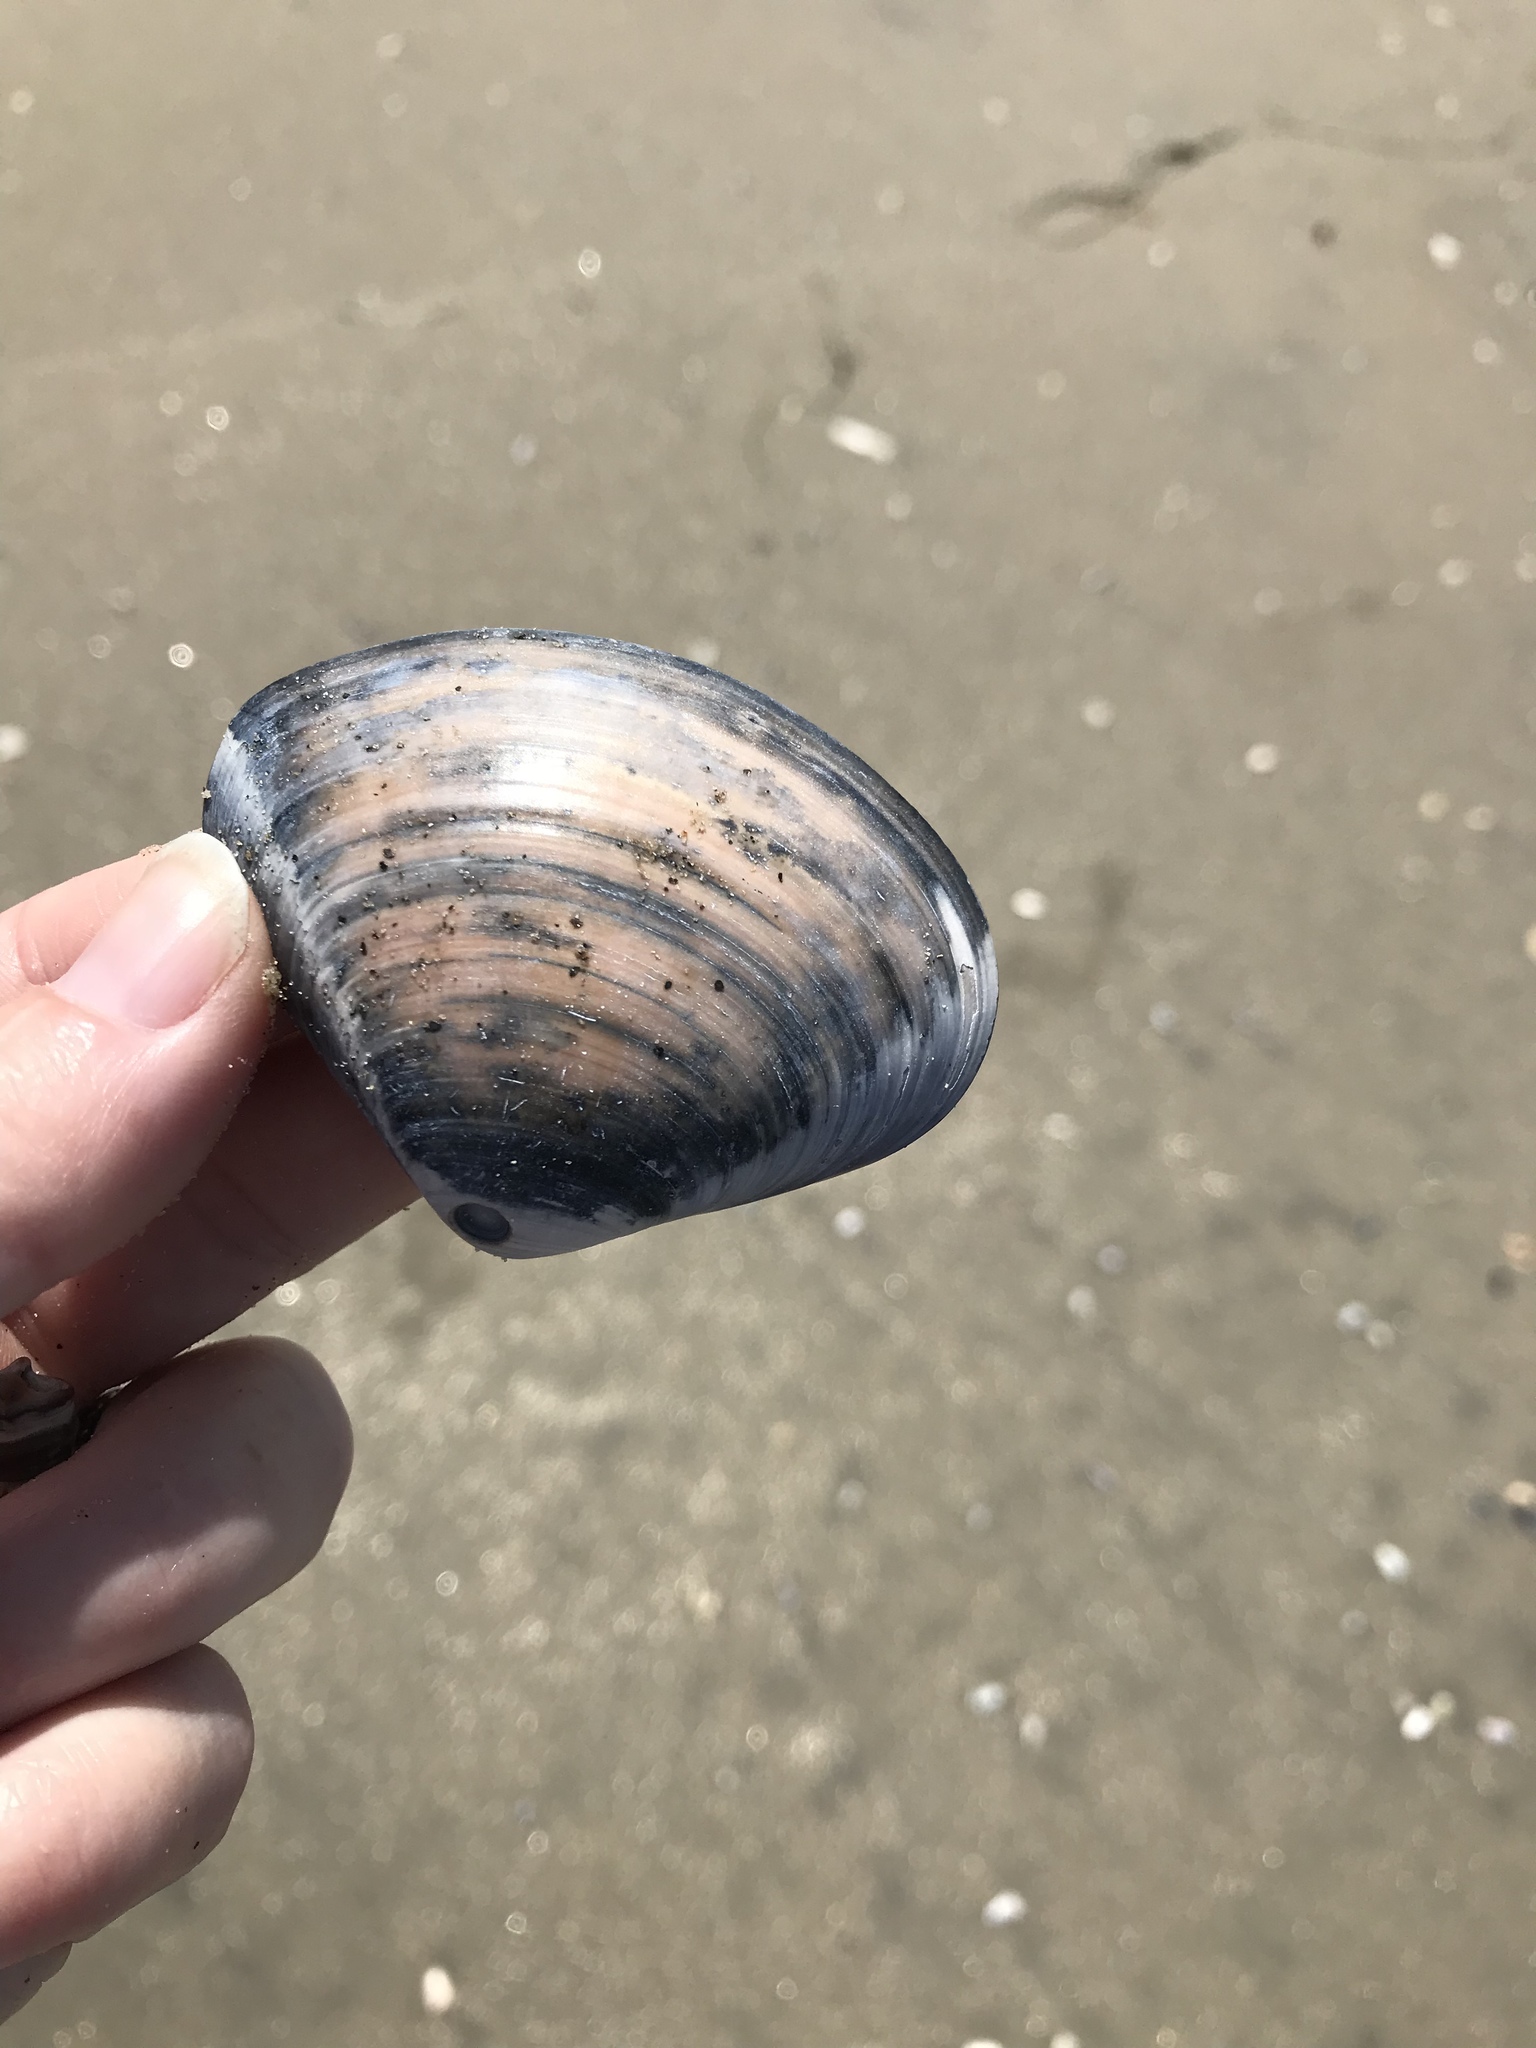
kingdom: Animalia
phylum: Mollusca
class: Bivalvia
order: Venerida
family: Veneridae
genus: Tivela
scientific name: Tivela stultorum
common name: Pismo clam
